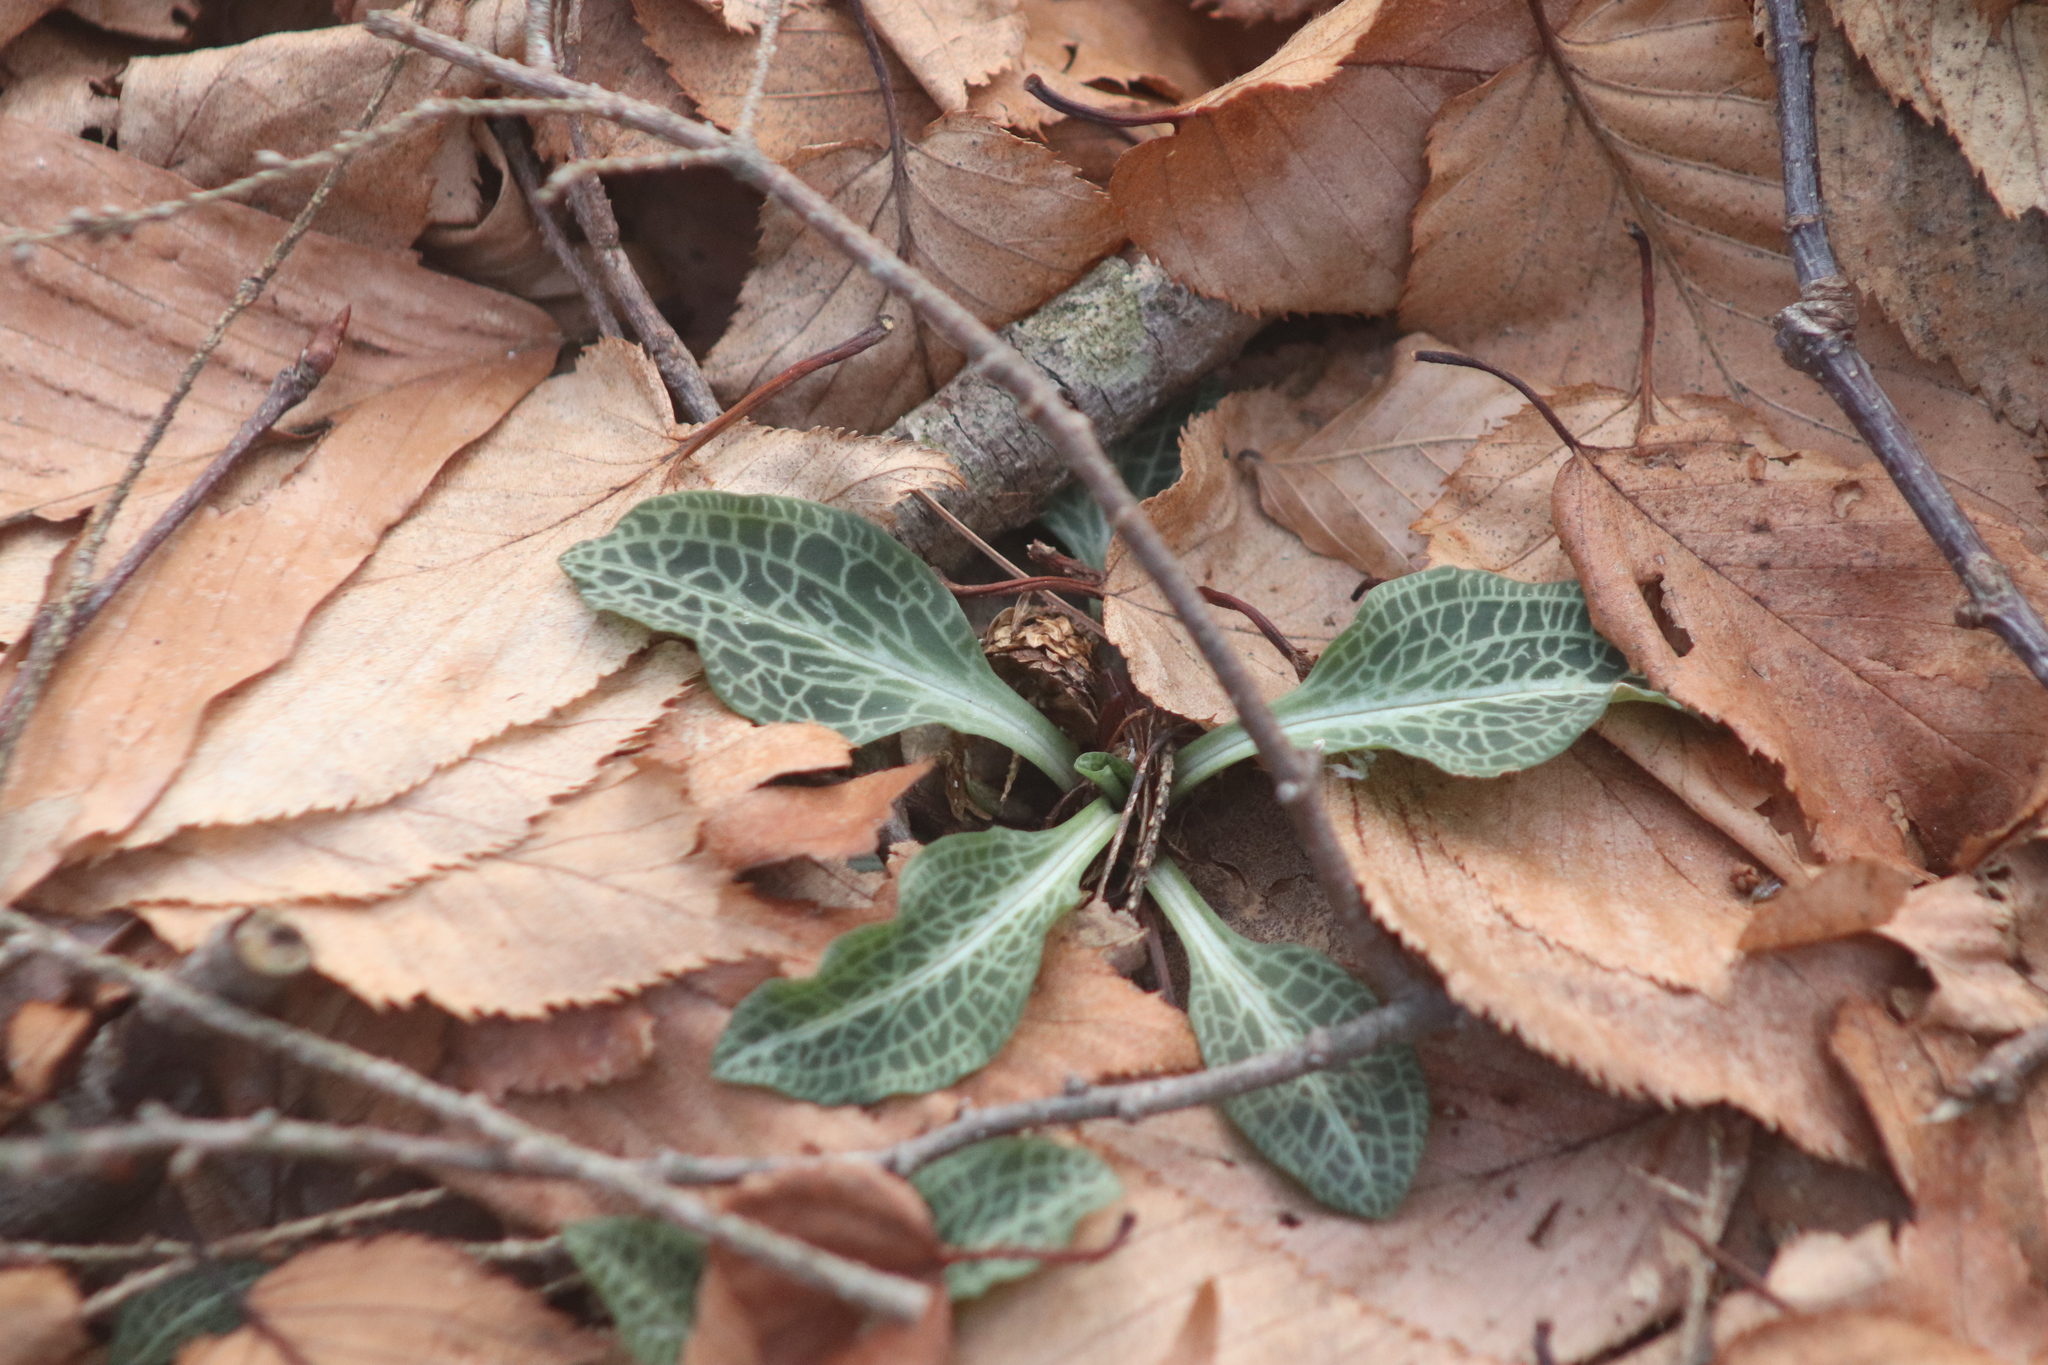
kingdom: Plantae
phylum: Tracheophyta
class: Liliopsida
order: Asparagales
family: Orchidaceae
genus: Goodyera
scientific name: Goodyera pubescens
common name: Downy rattlesnake-plantain
